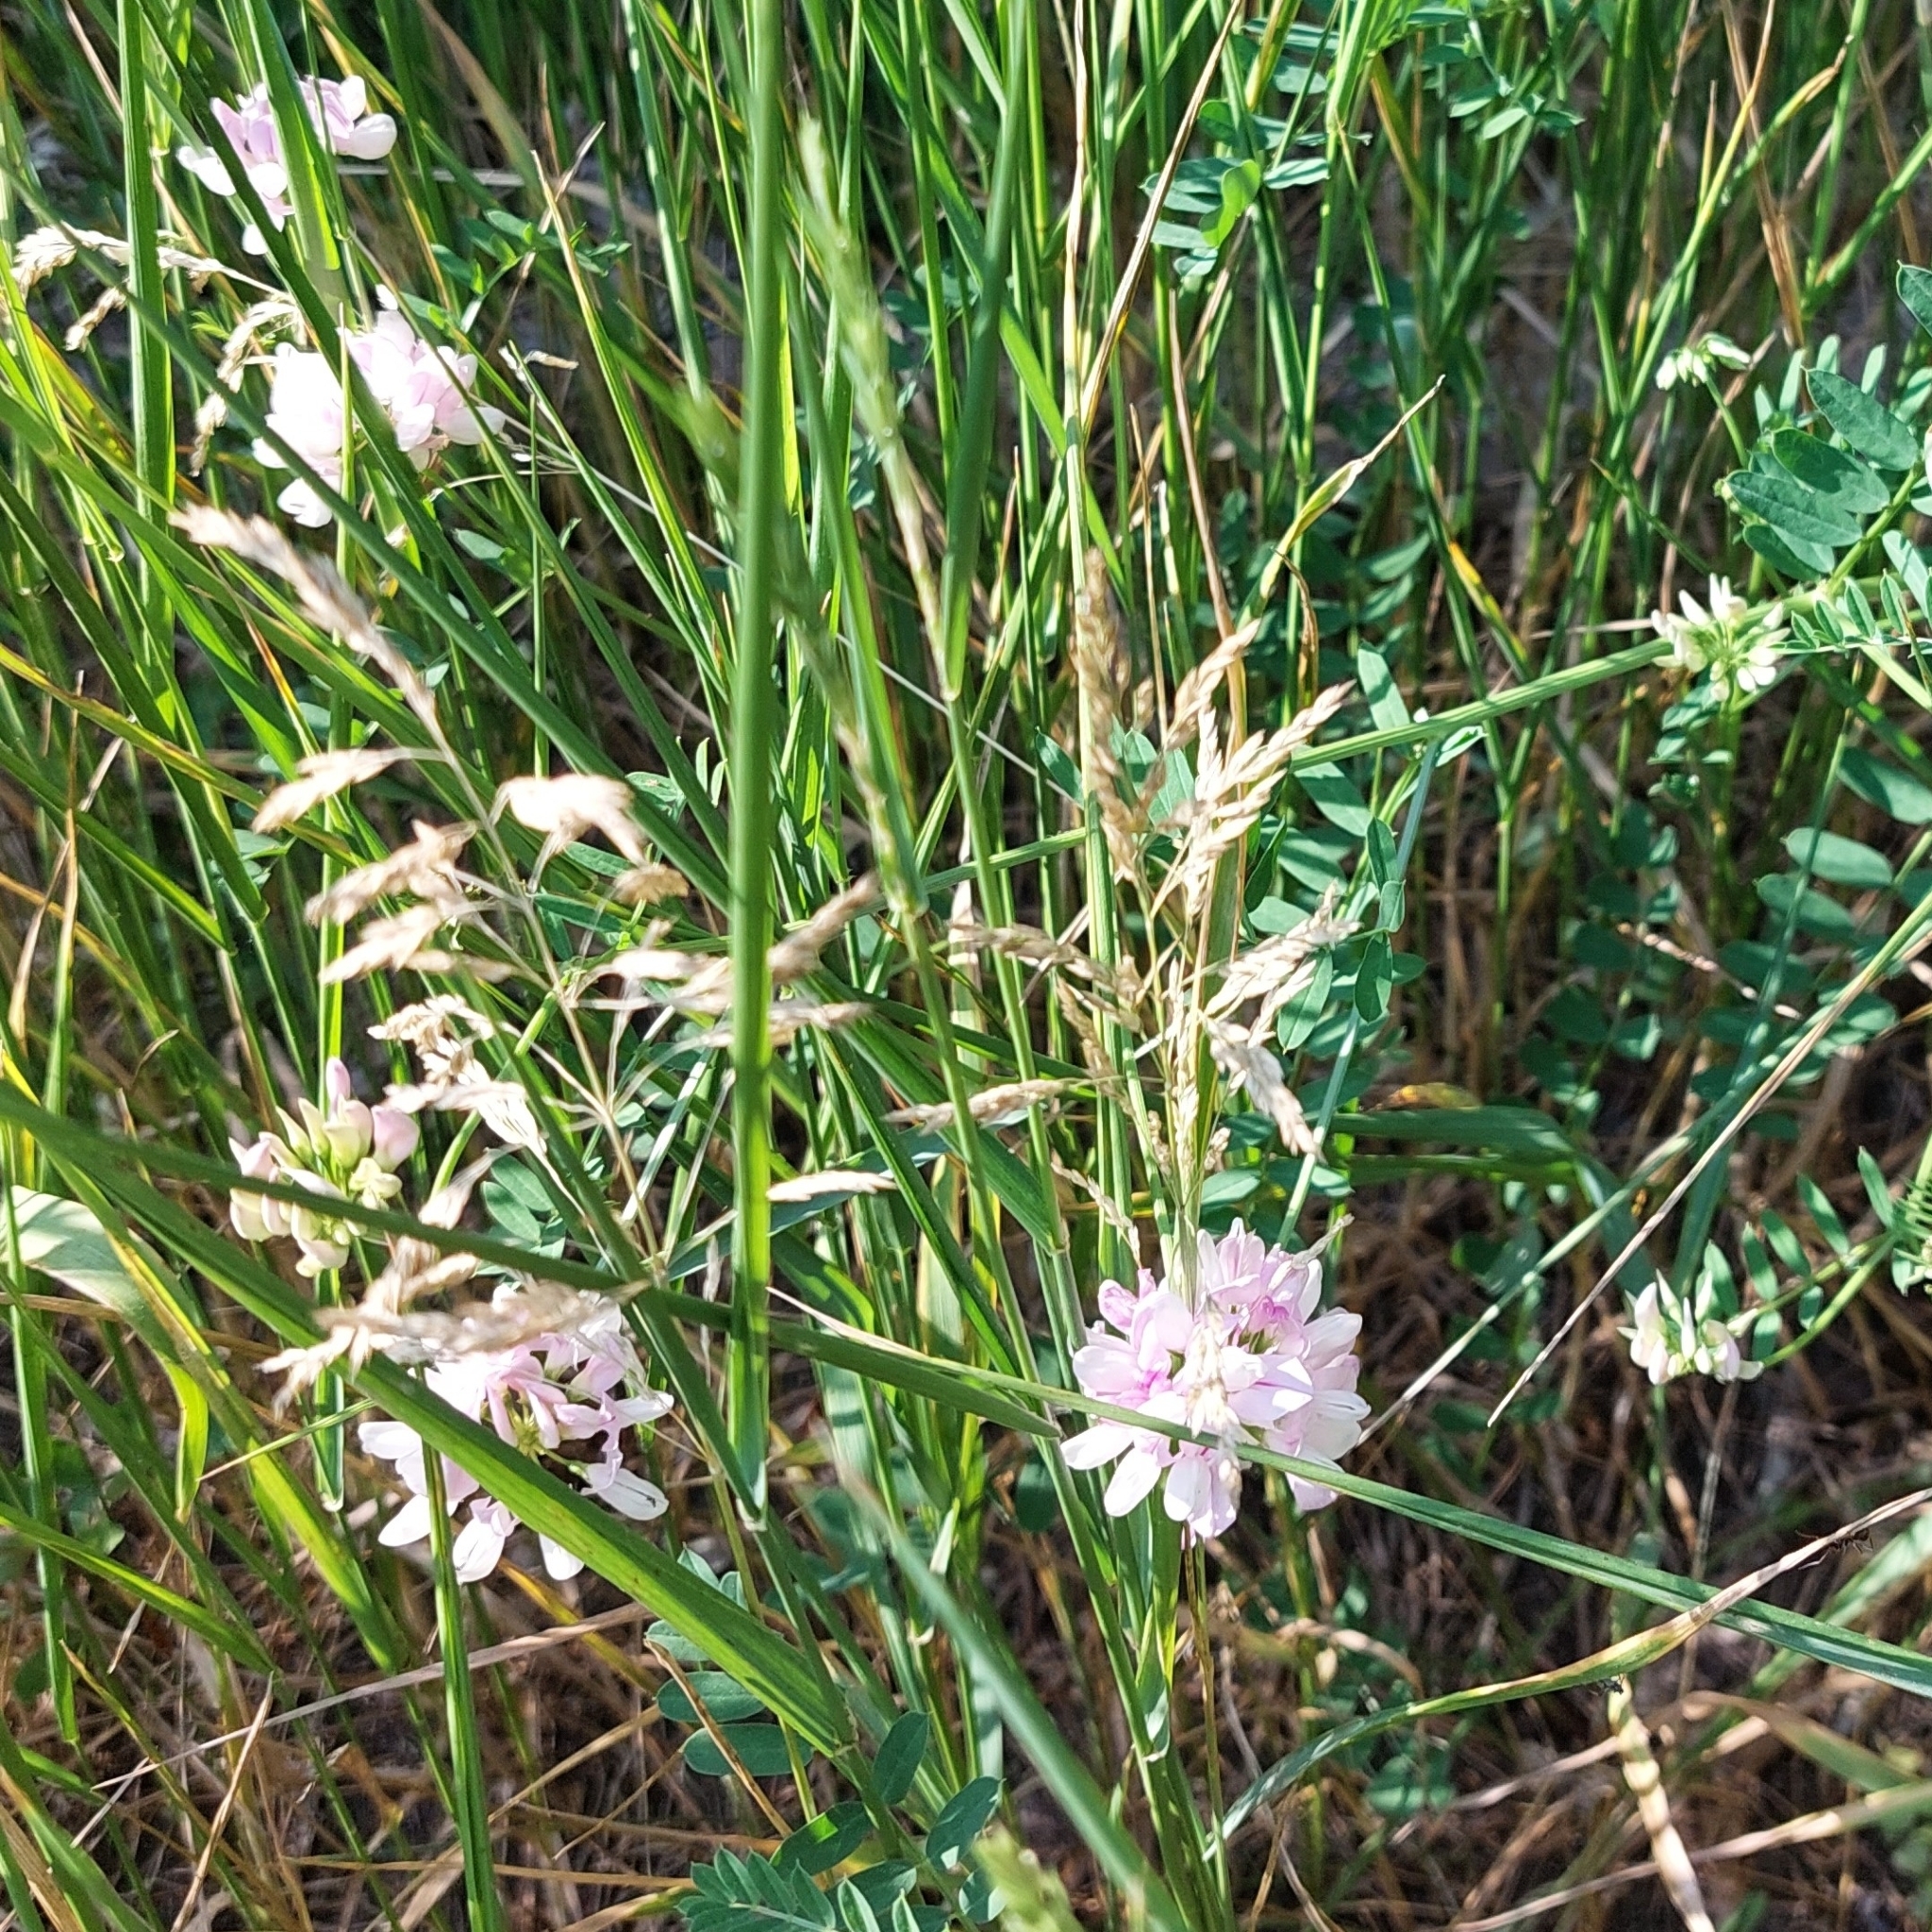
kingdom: Plantae
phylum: Tracheophyta
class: Magnoliopsida
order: Fabales
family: Fabaceae
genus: Coronilla
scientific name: Coronilla varia
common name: Crownvetch
